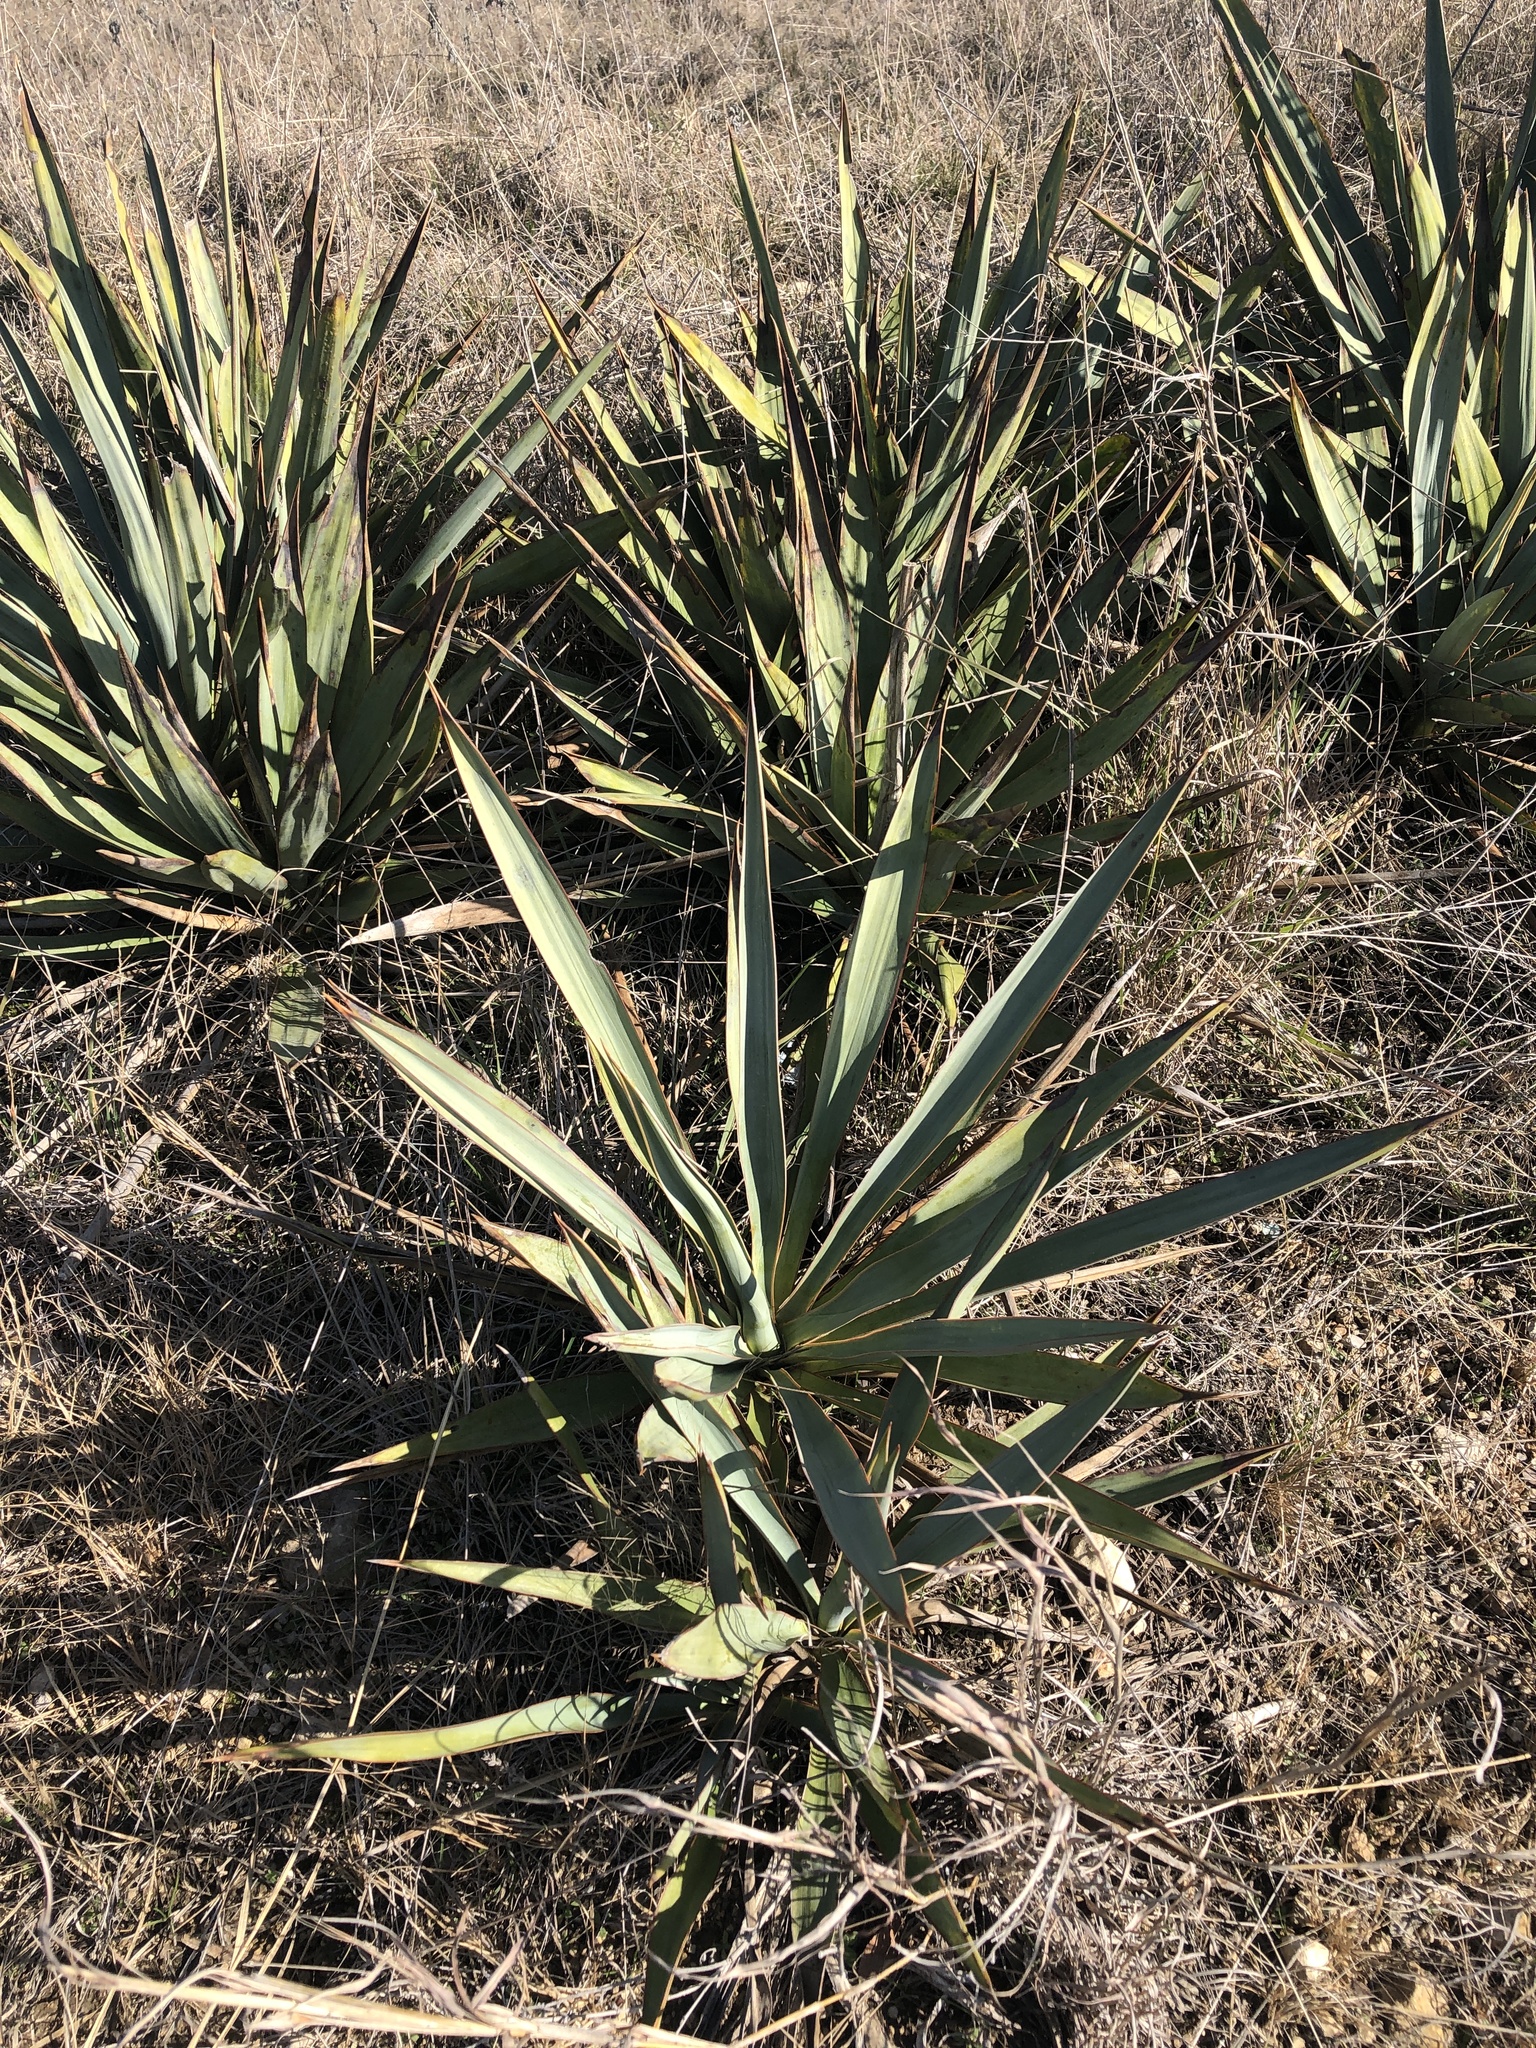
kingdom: Plantae
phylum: Tracheophyta
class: Liliopsida
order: Asparagales
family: Asparagaceae
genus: Yucca
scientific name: Yucca pallida
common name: Pale leaf yucca
